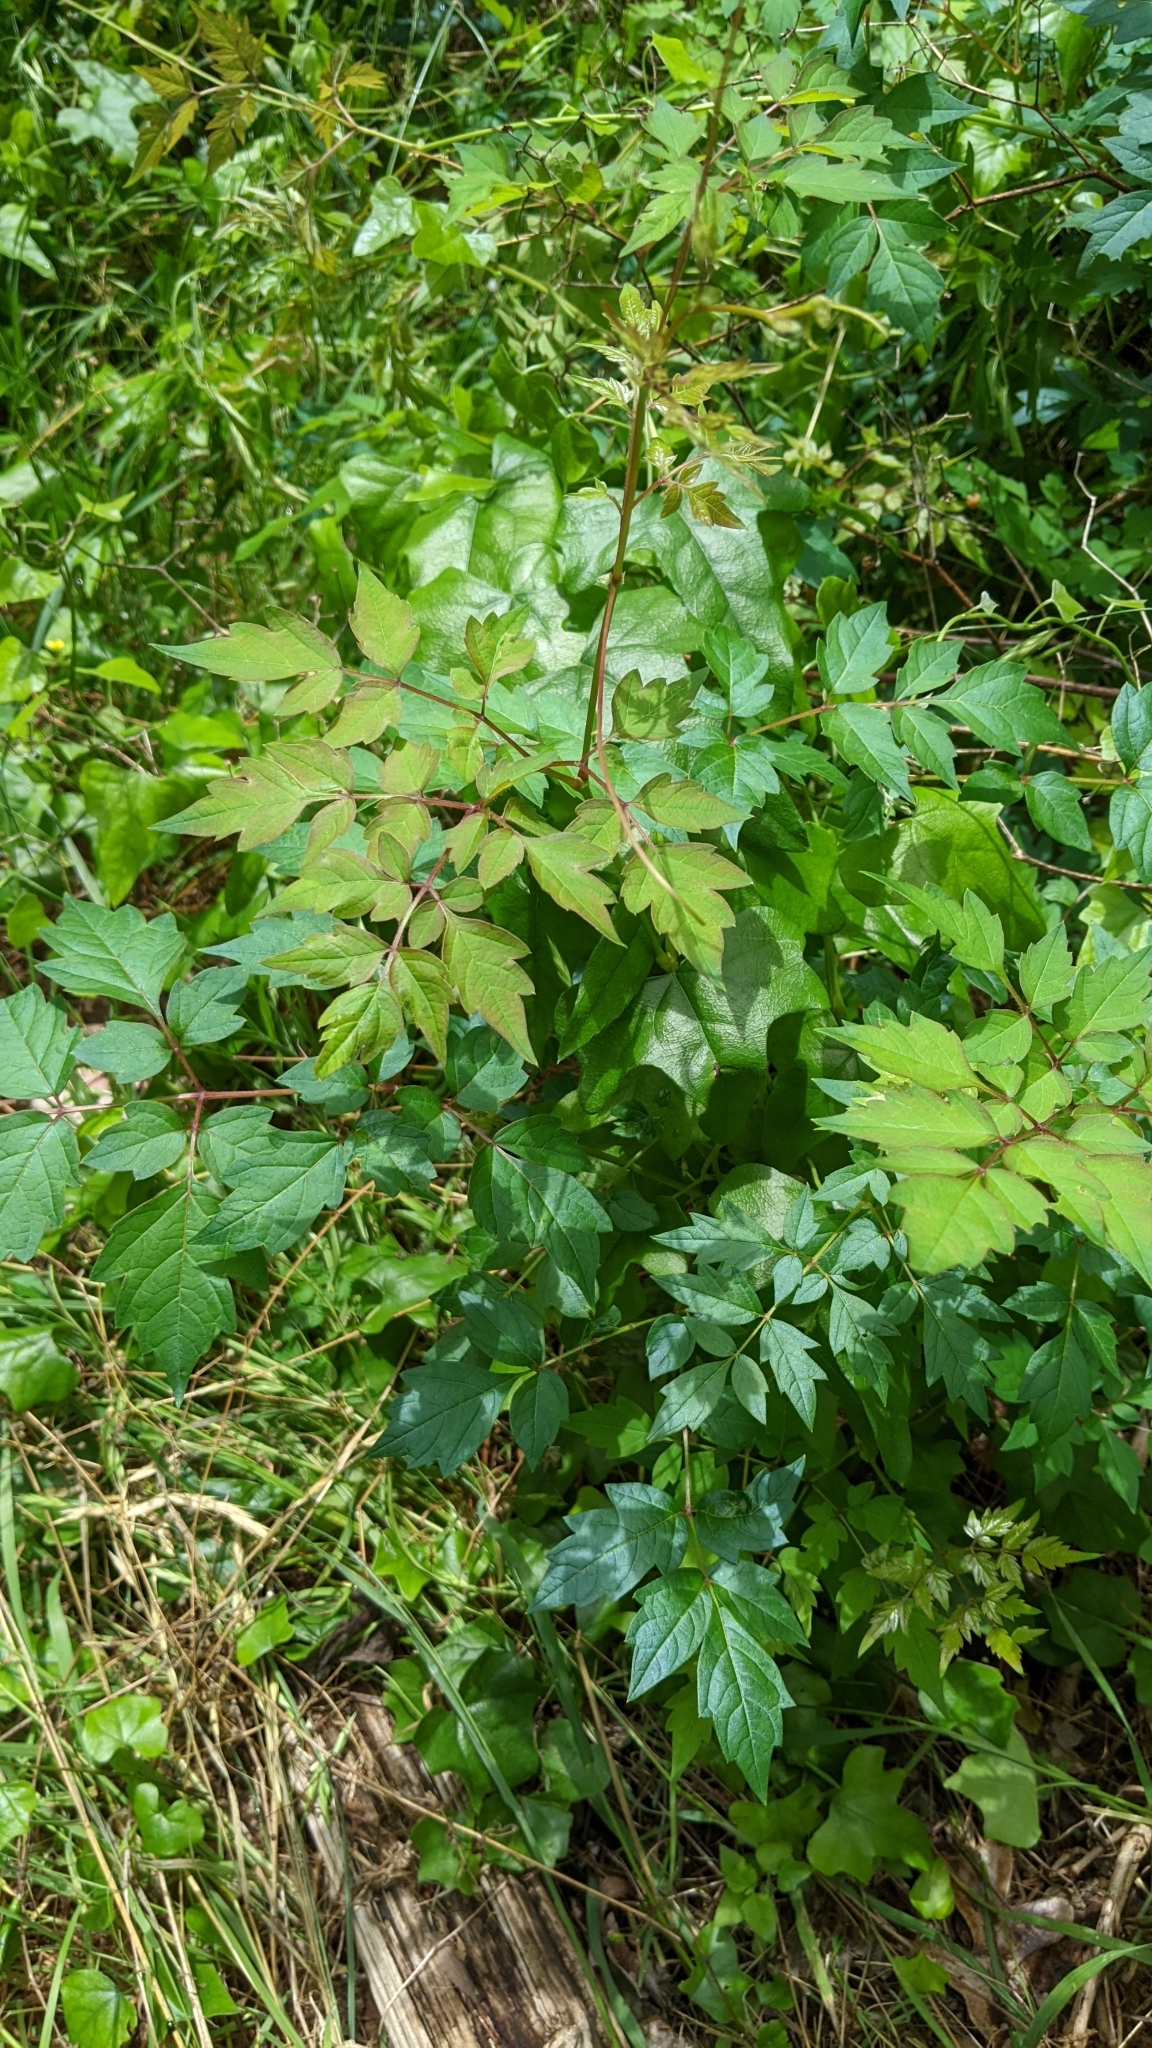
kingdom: Plantae
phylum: Tracheophyta
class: Magnoliopsida
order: Vitales
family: Vitaceae
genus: Nekemias
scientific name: Nekemias arborea
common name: Peppervine
